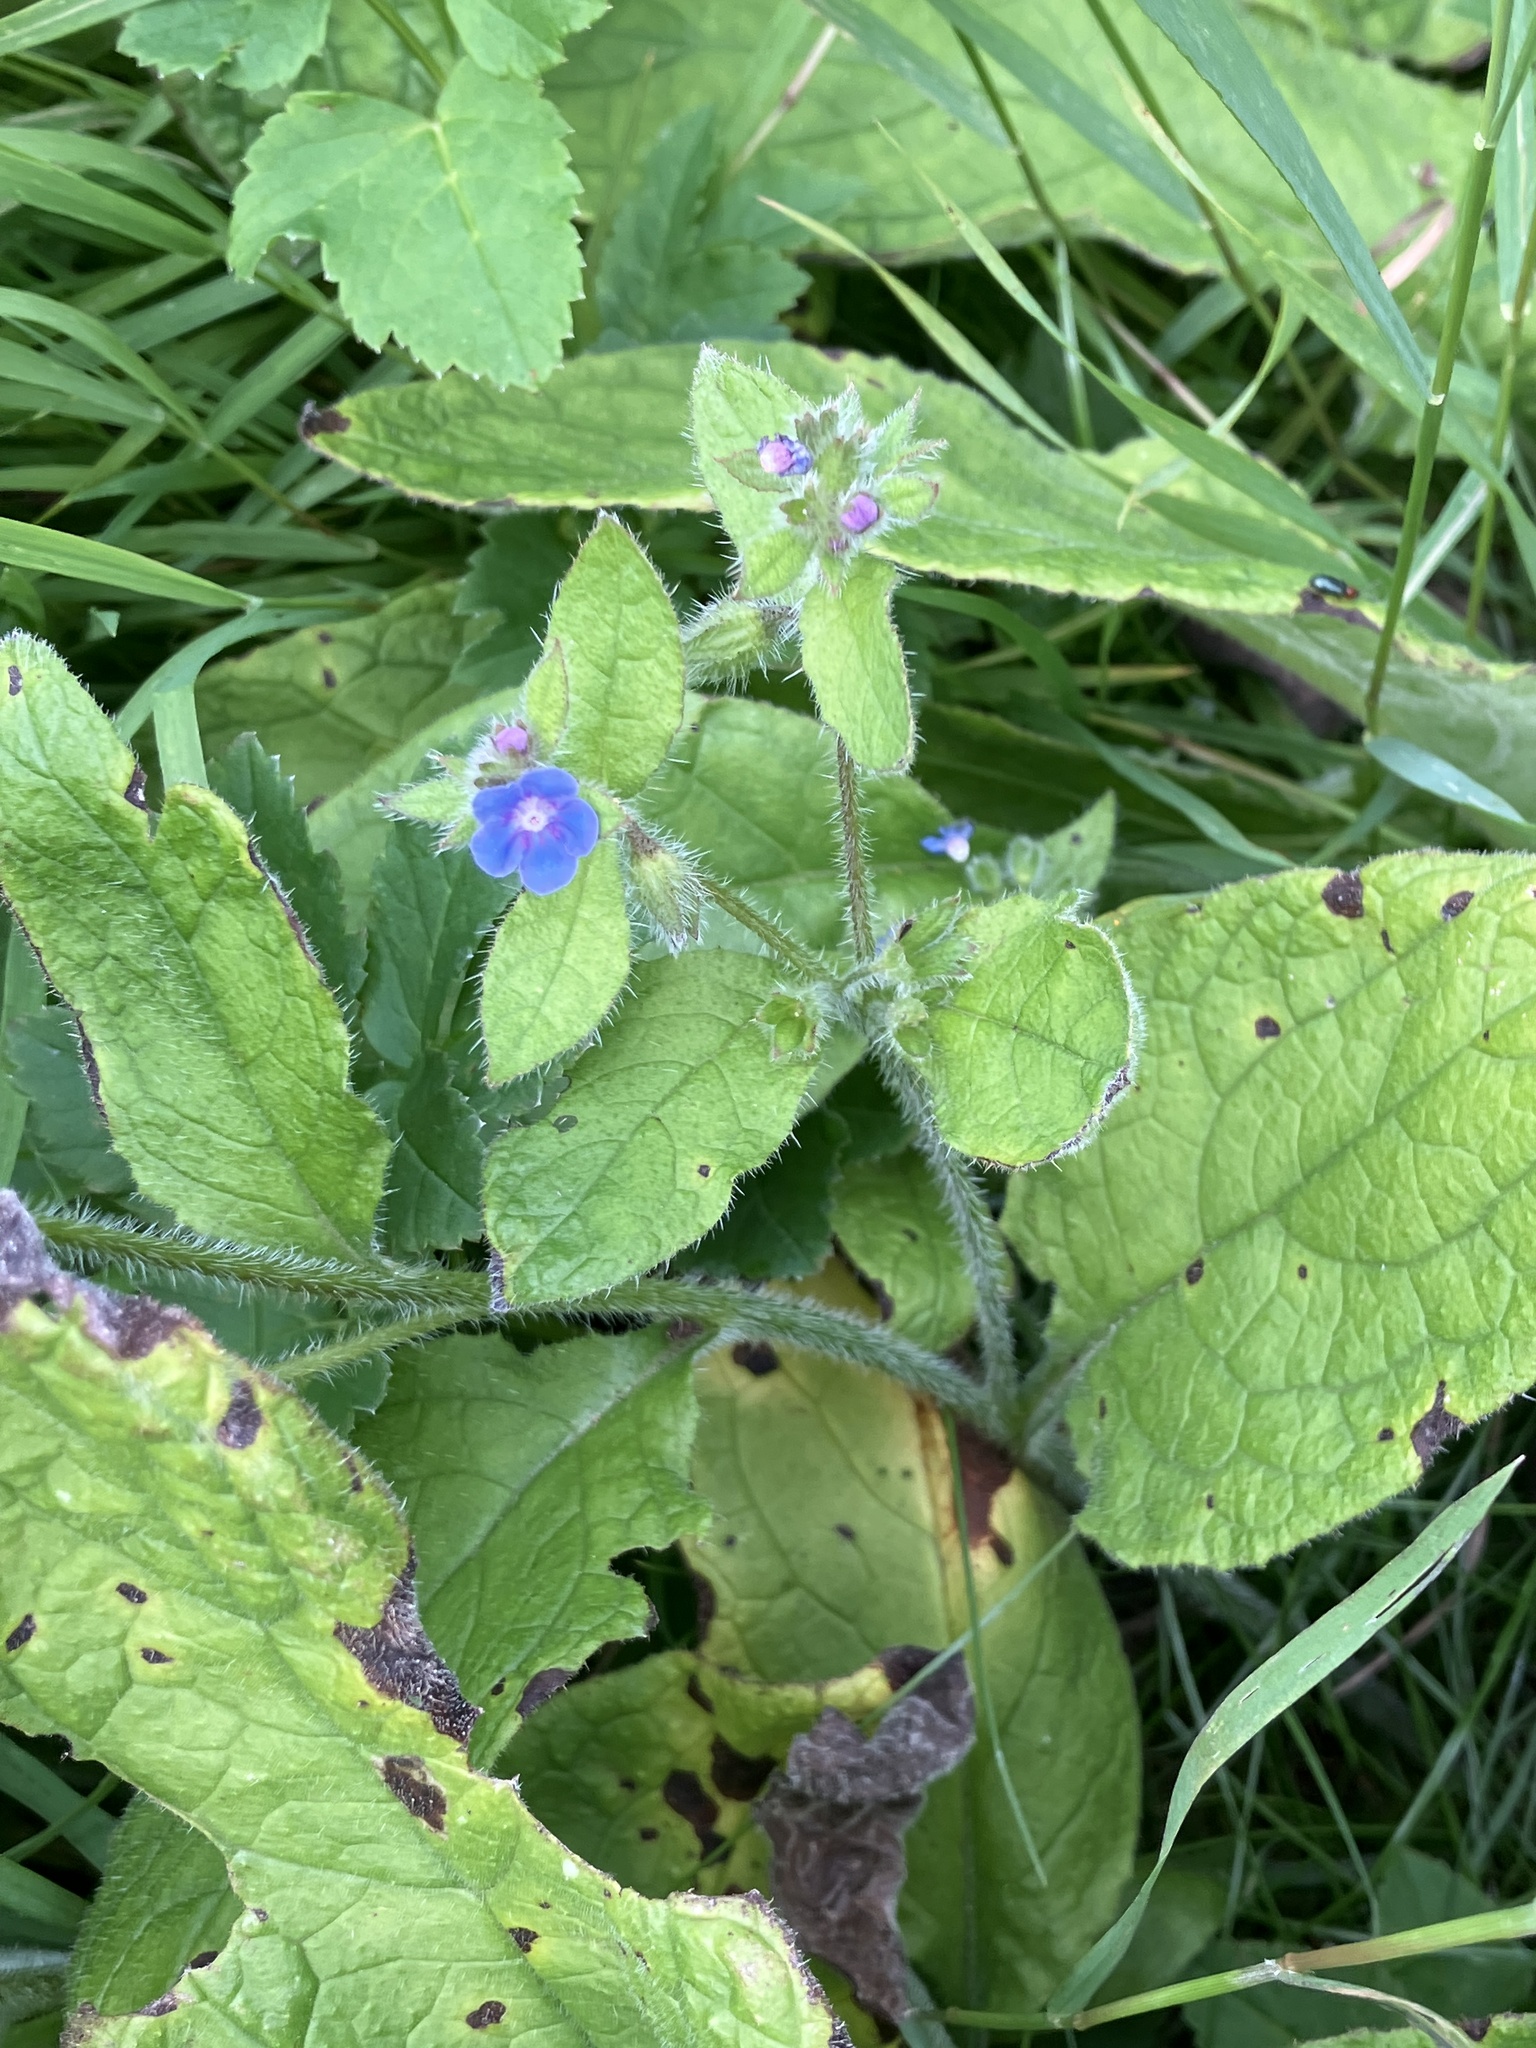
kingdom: Plantae
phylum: Tracheophyta
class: Magnoliopsida
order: Boraginales
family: Boraginaceae
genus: Pentaglottis
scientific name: Pentaglottis sempervirens
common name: Green alkanet
